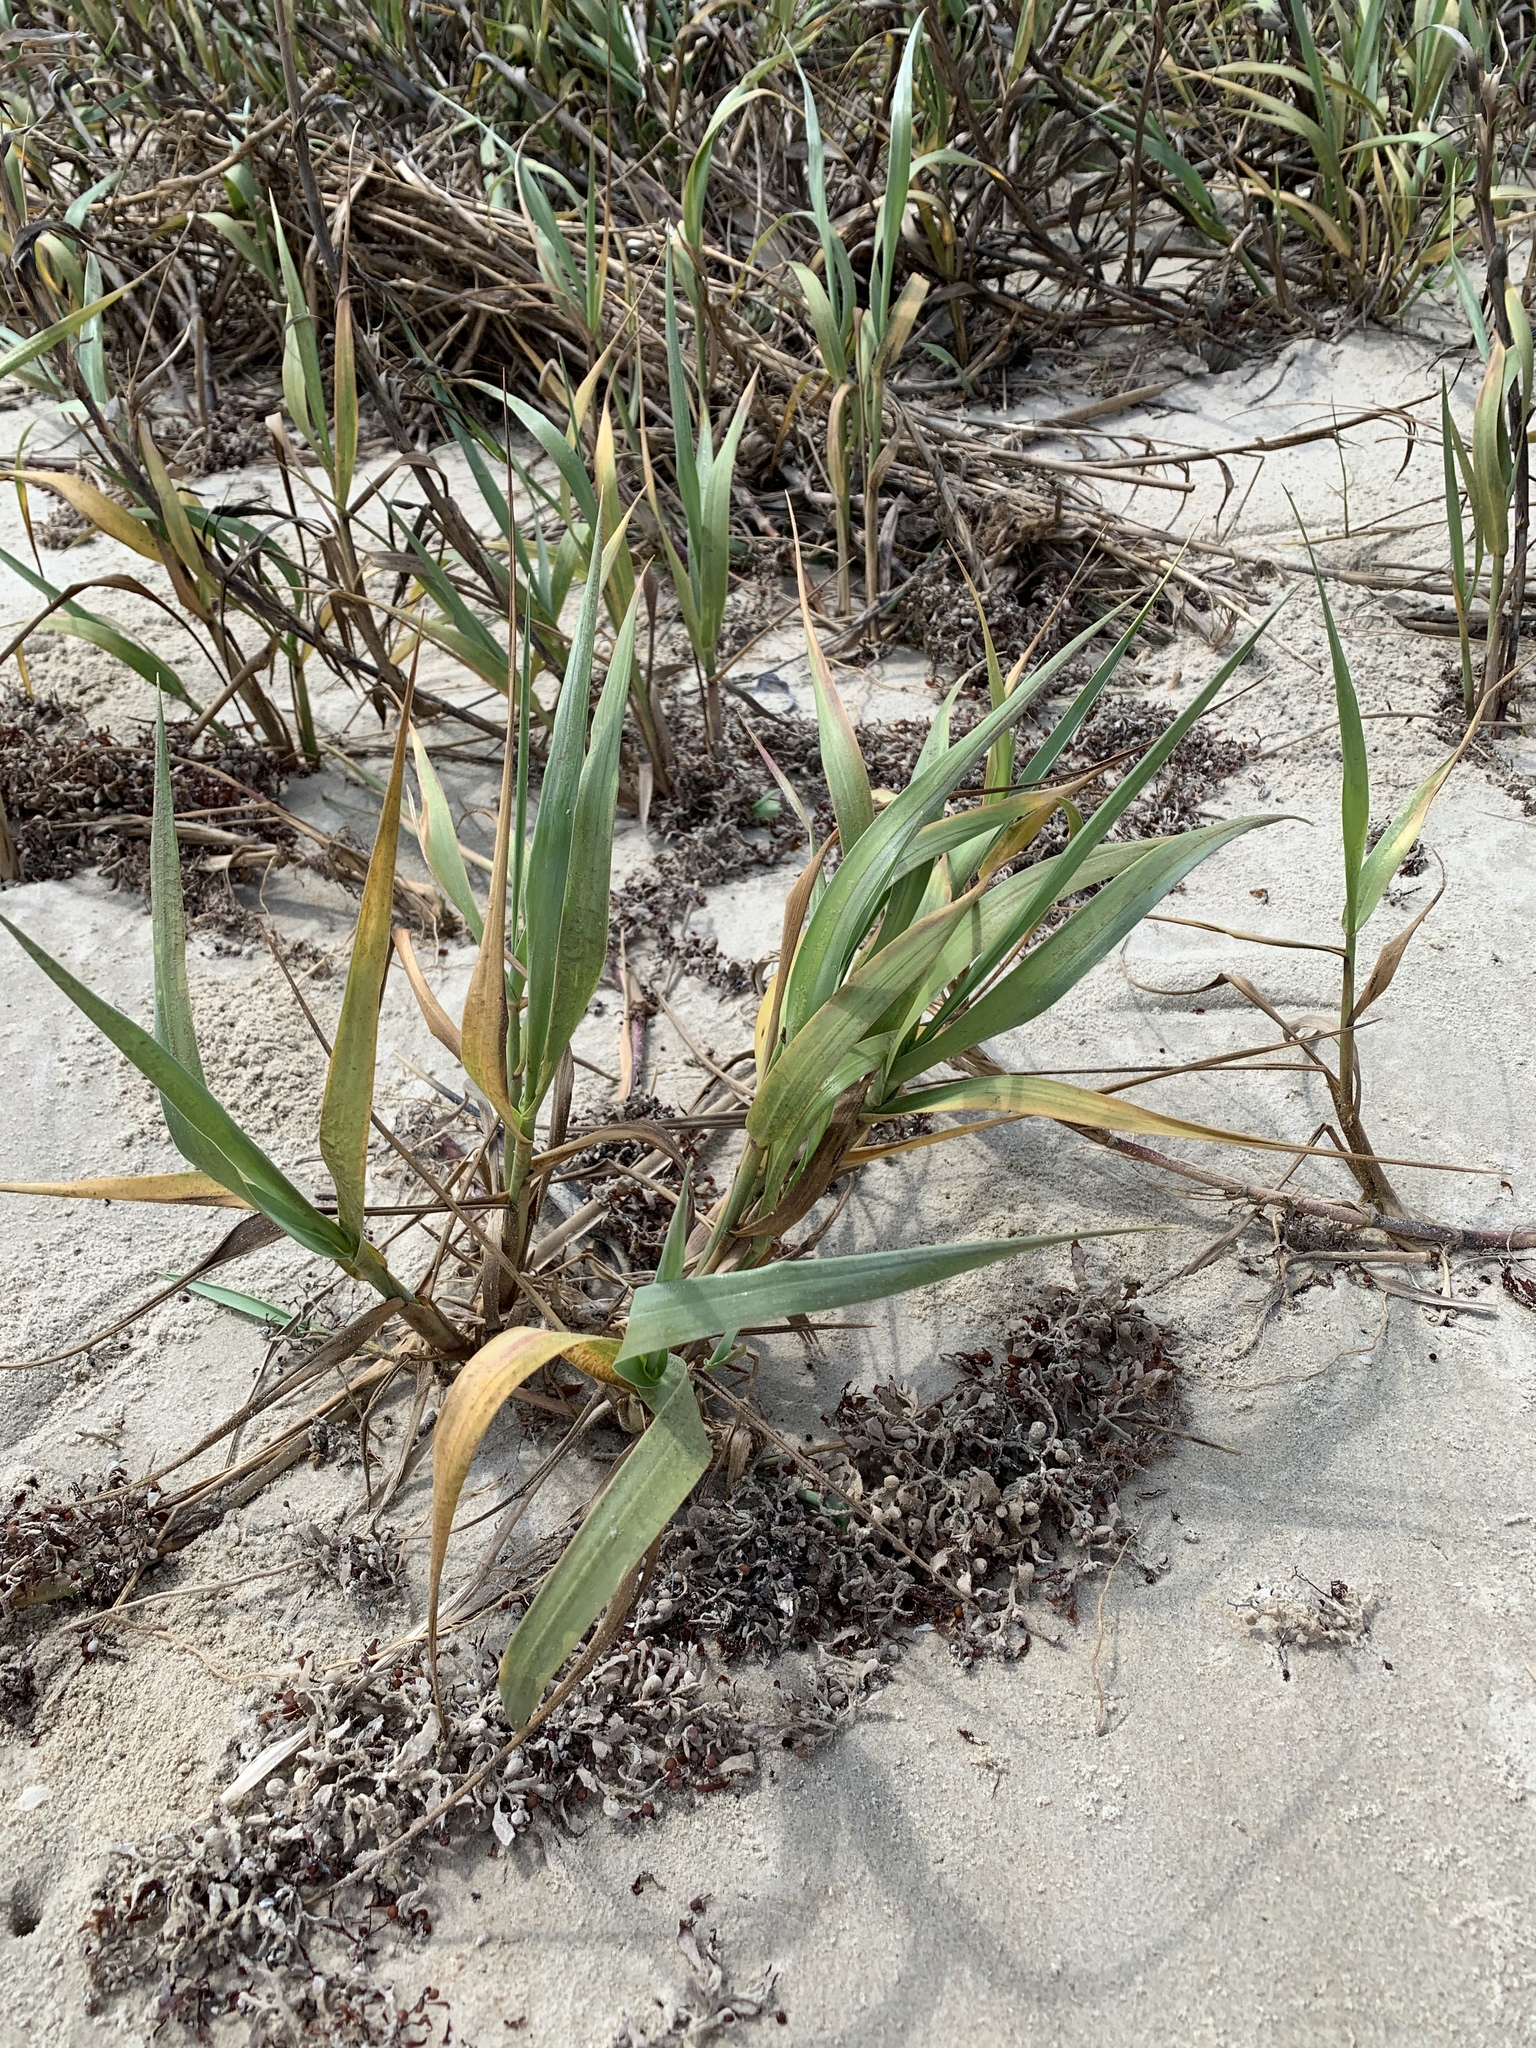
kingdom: Plantae
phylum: Tracheophyta
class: Liliopsida
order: Poales
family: Poaceae
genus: Panicum
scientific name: Panicum amarum
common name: Bitter panicum
